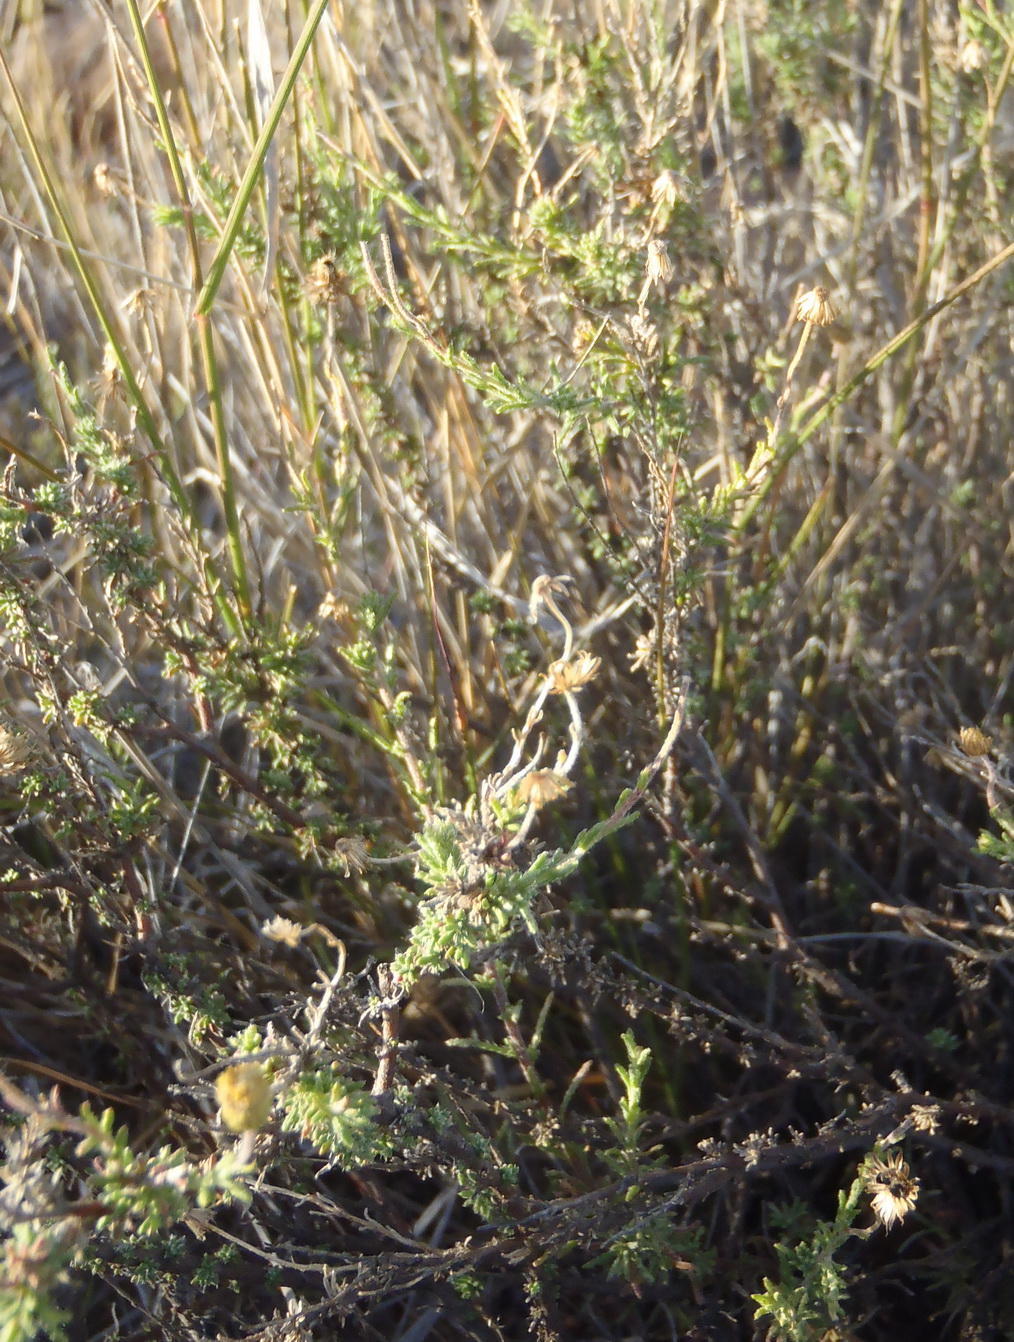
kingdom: Plantae
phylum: Tracheophyta
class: Magnoliopsida
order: Asterales
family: Asteraceae
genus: Felicia
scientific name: Felicia muricata
